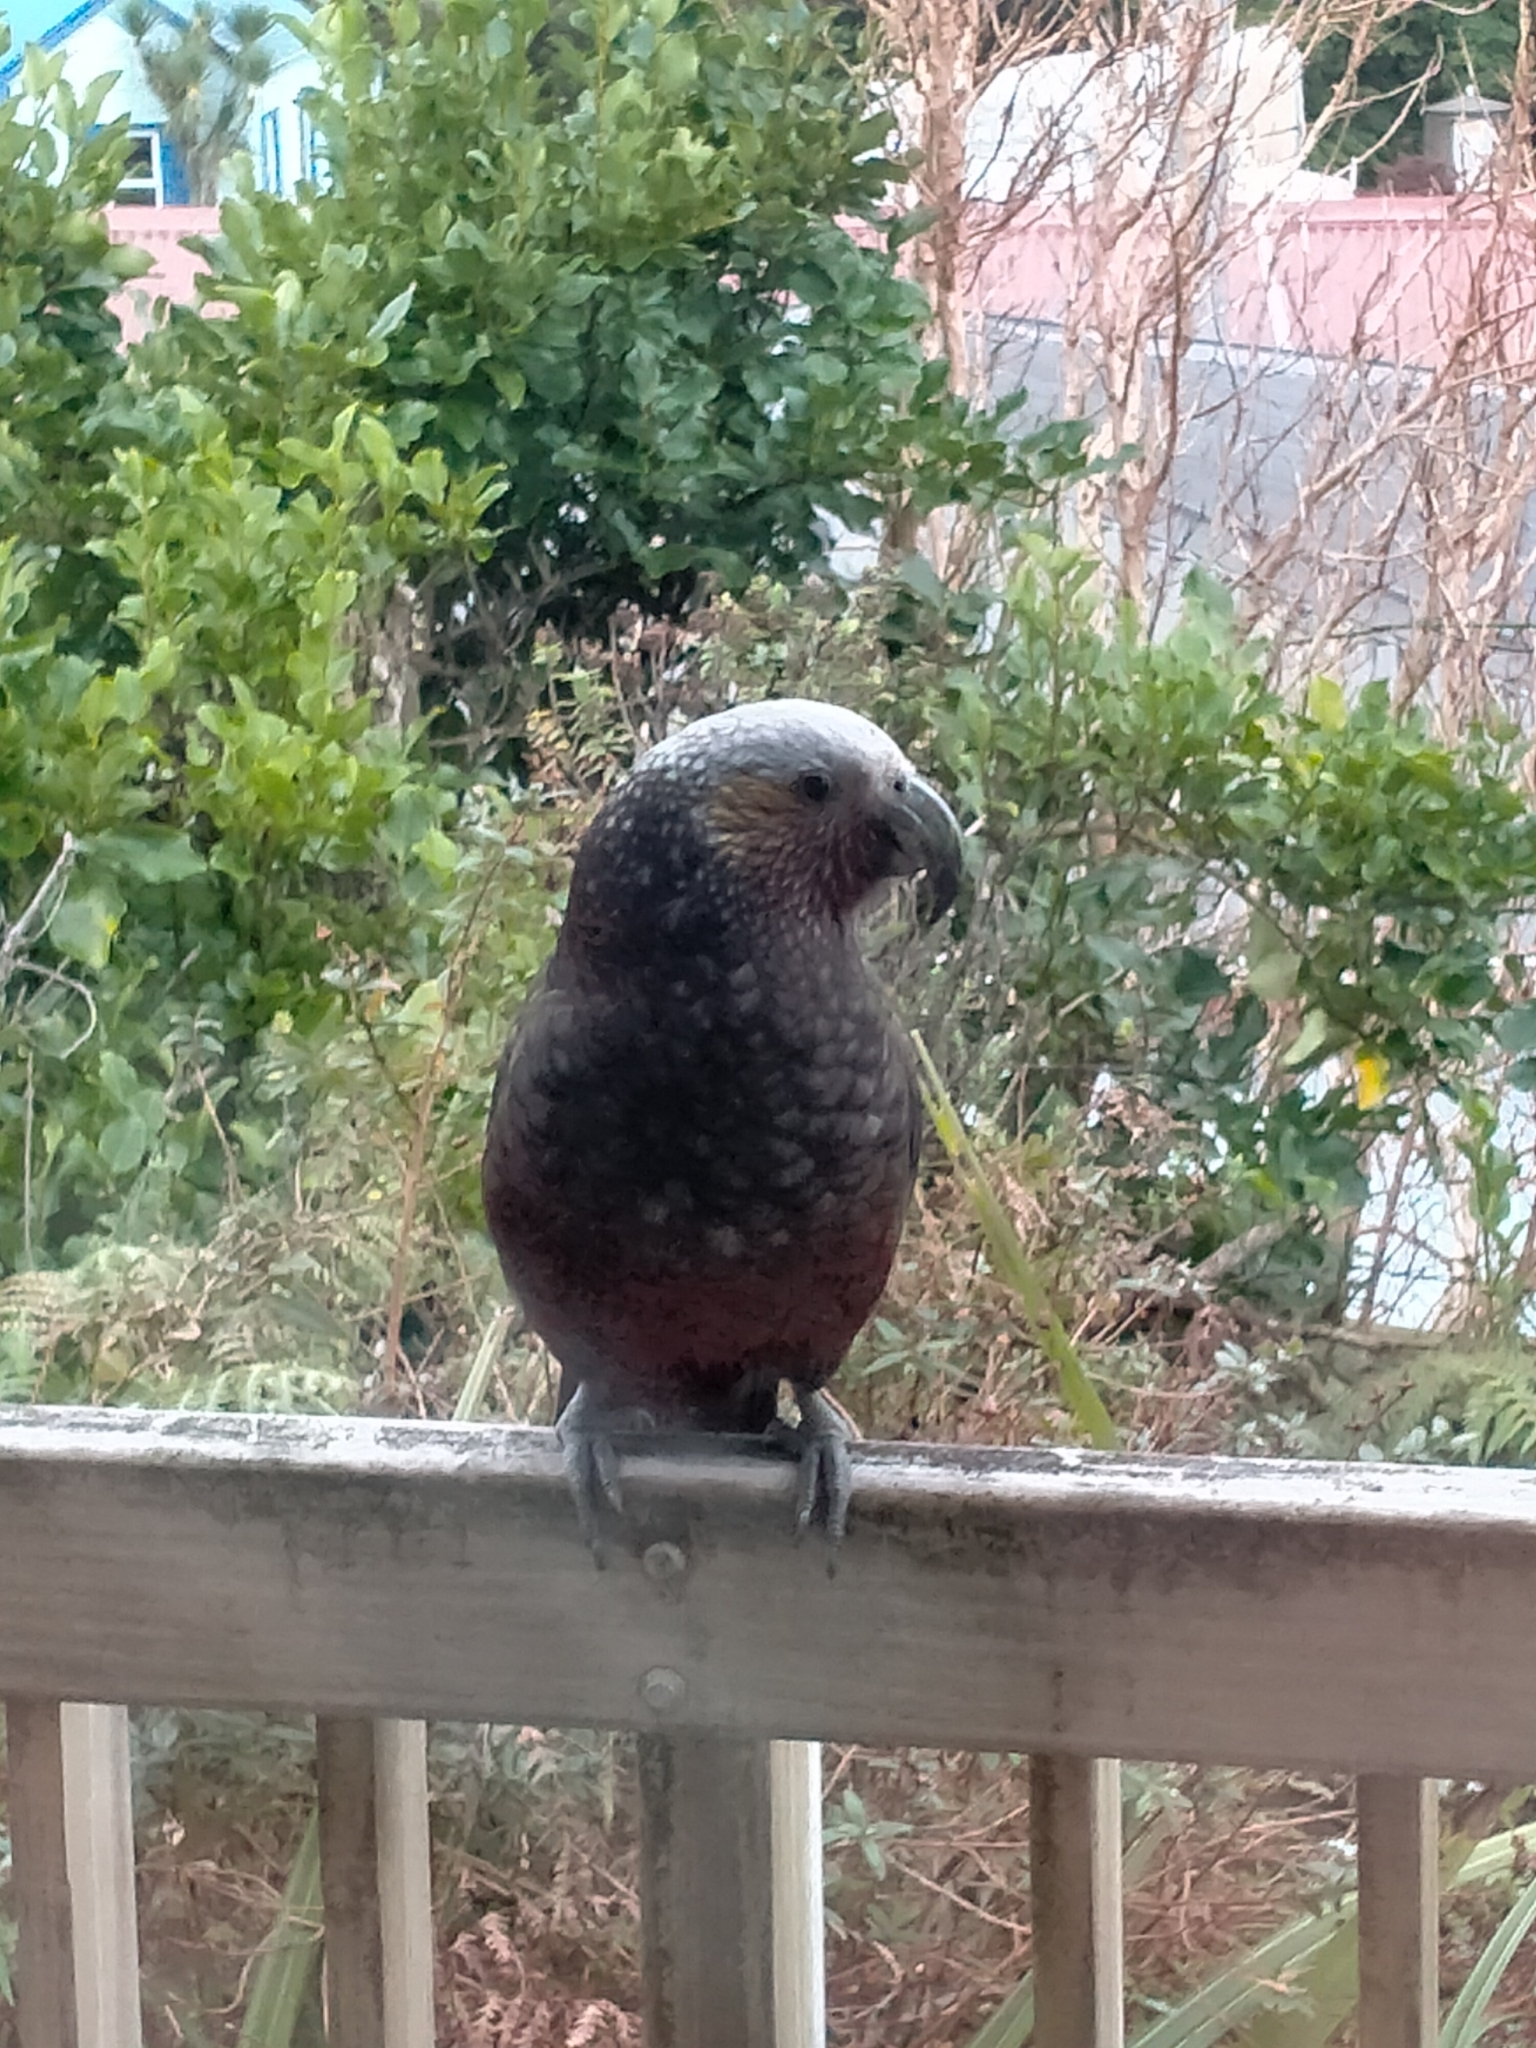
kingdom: Animalia
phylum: Chordata
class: Aves
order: Psittaciformes
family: Psittacidae
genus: Nestor
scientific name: Nestor meridionalis
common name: New zealand kaka
